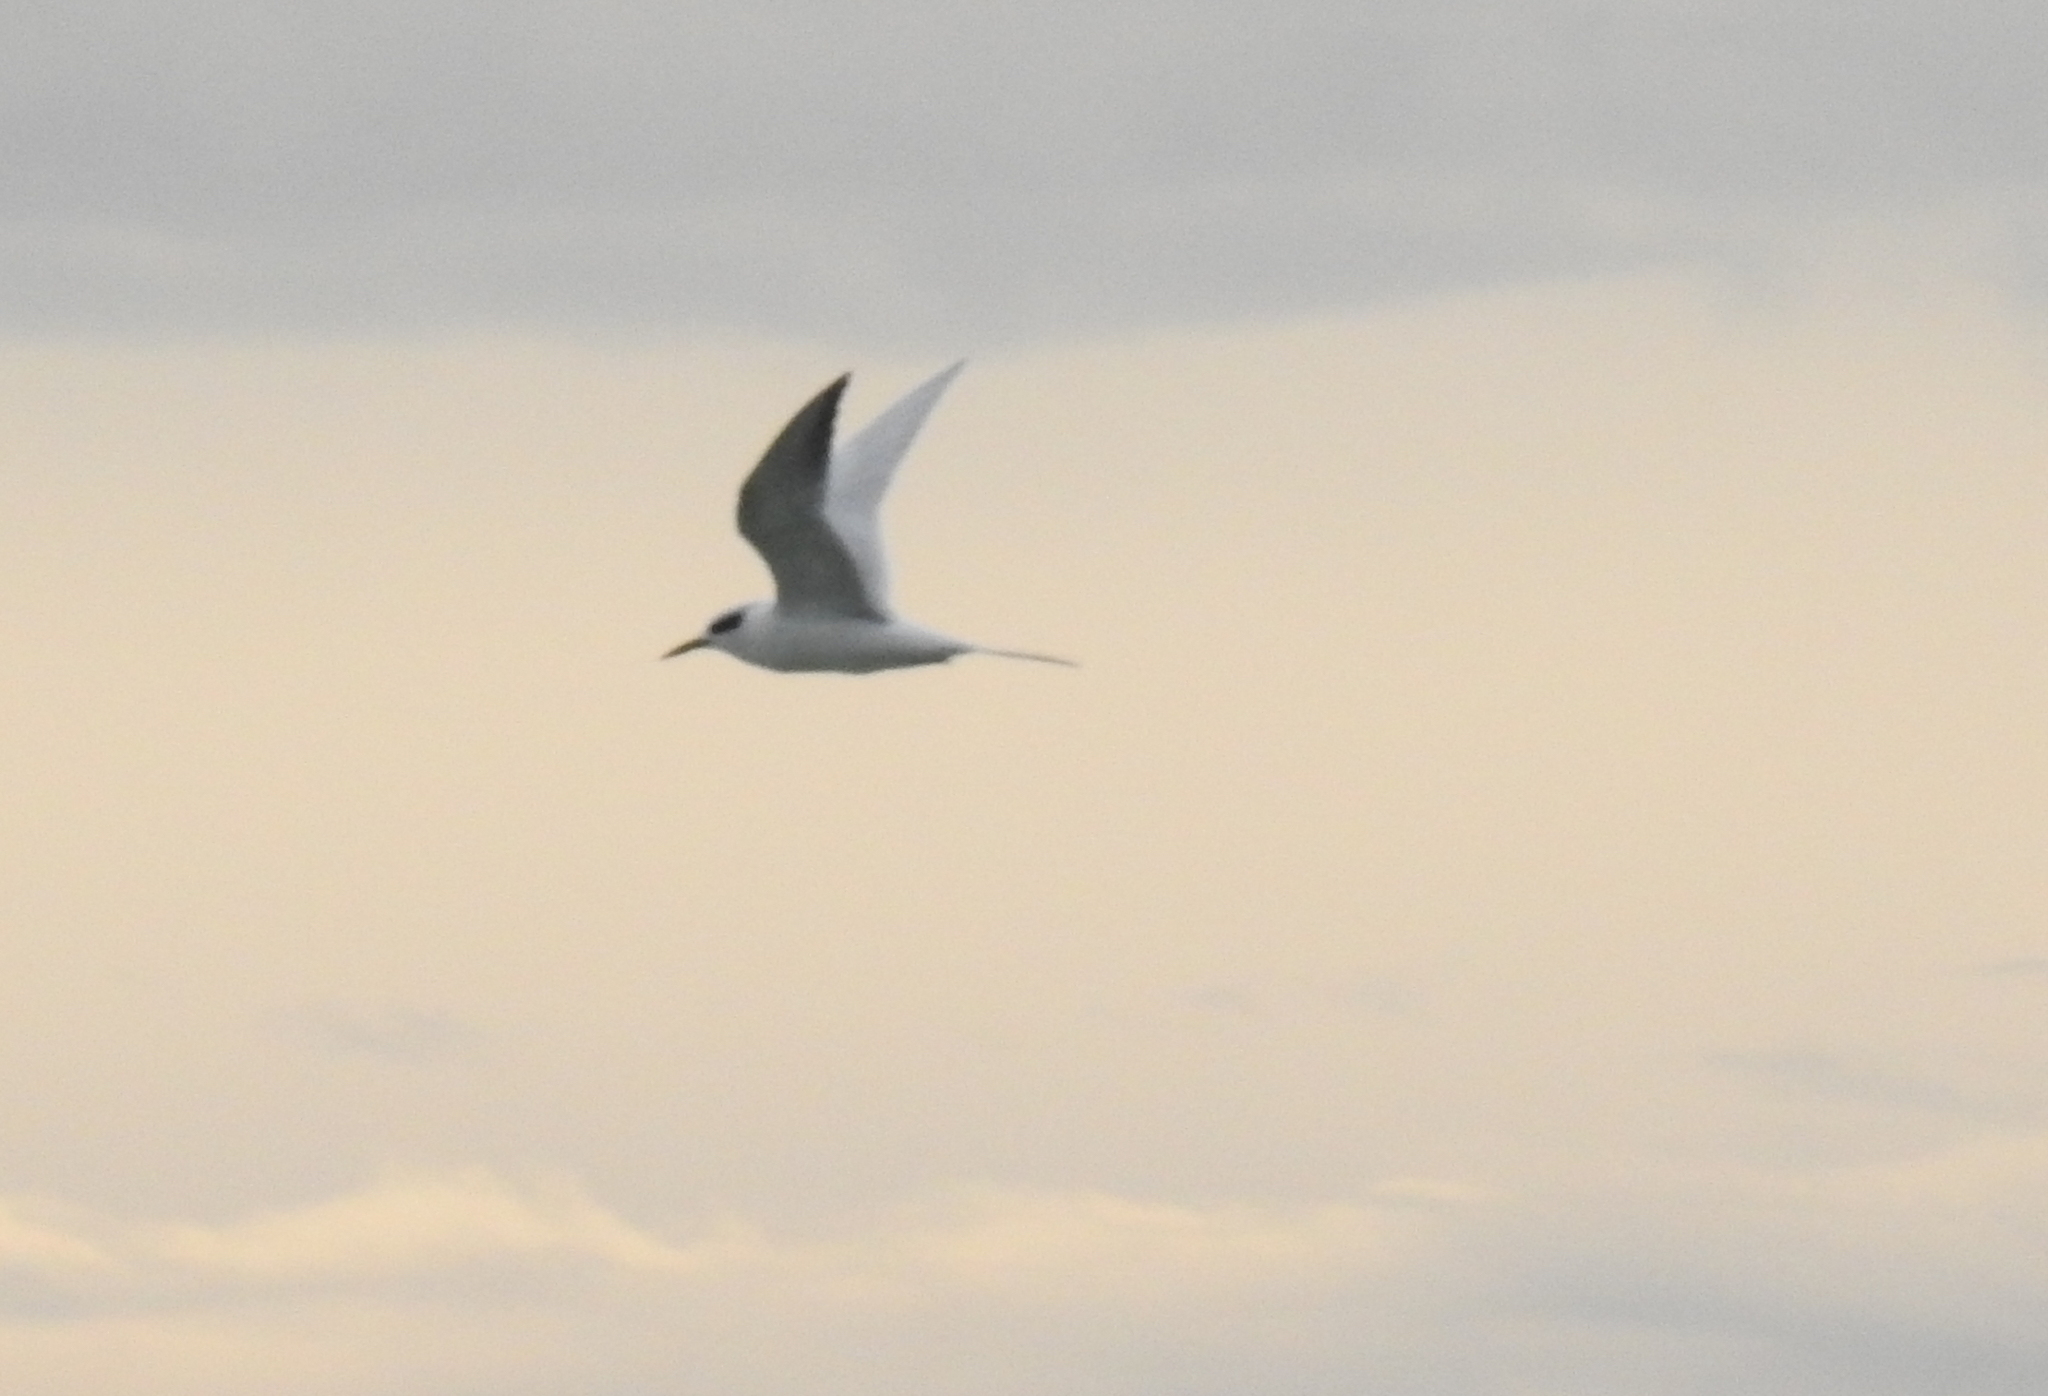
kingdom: Animalia
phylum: Chordata
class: Aves
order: Charadriiformes
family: Laridae
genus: Sterna
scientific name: Sterna forsteri
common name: Forster's tern
